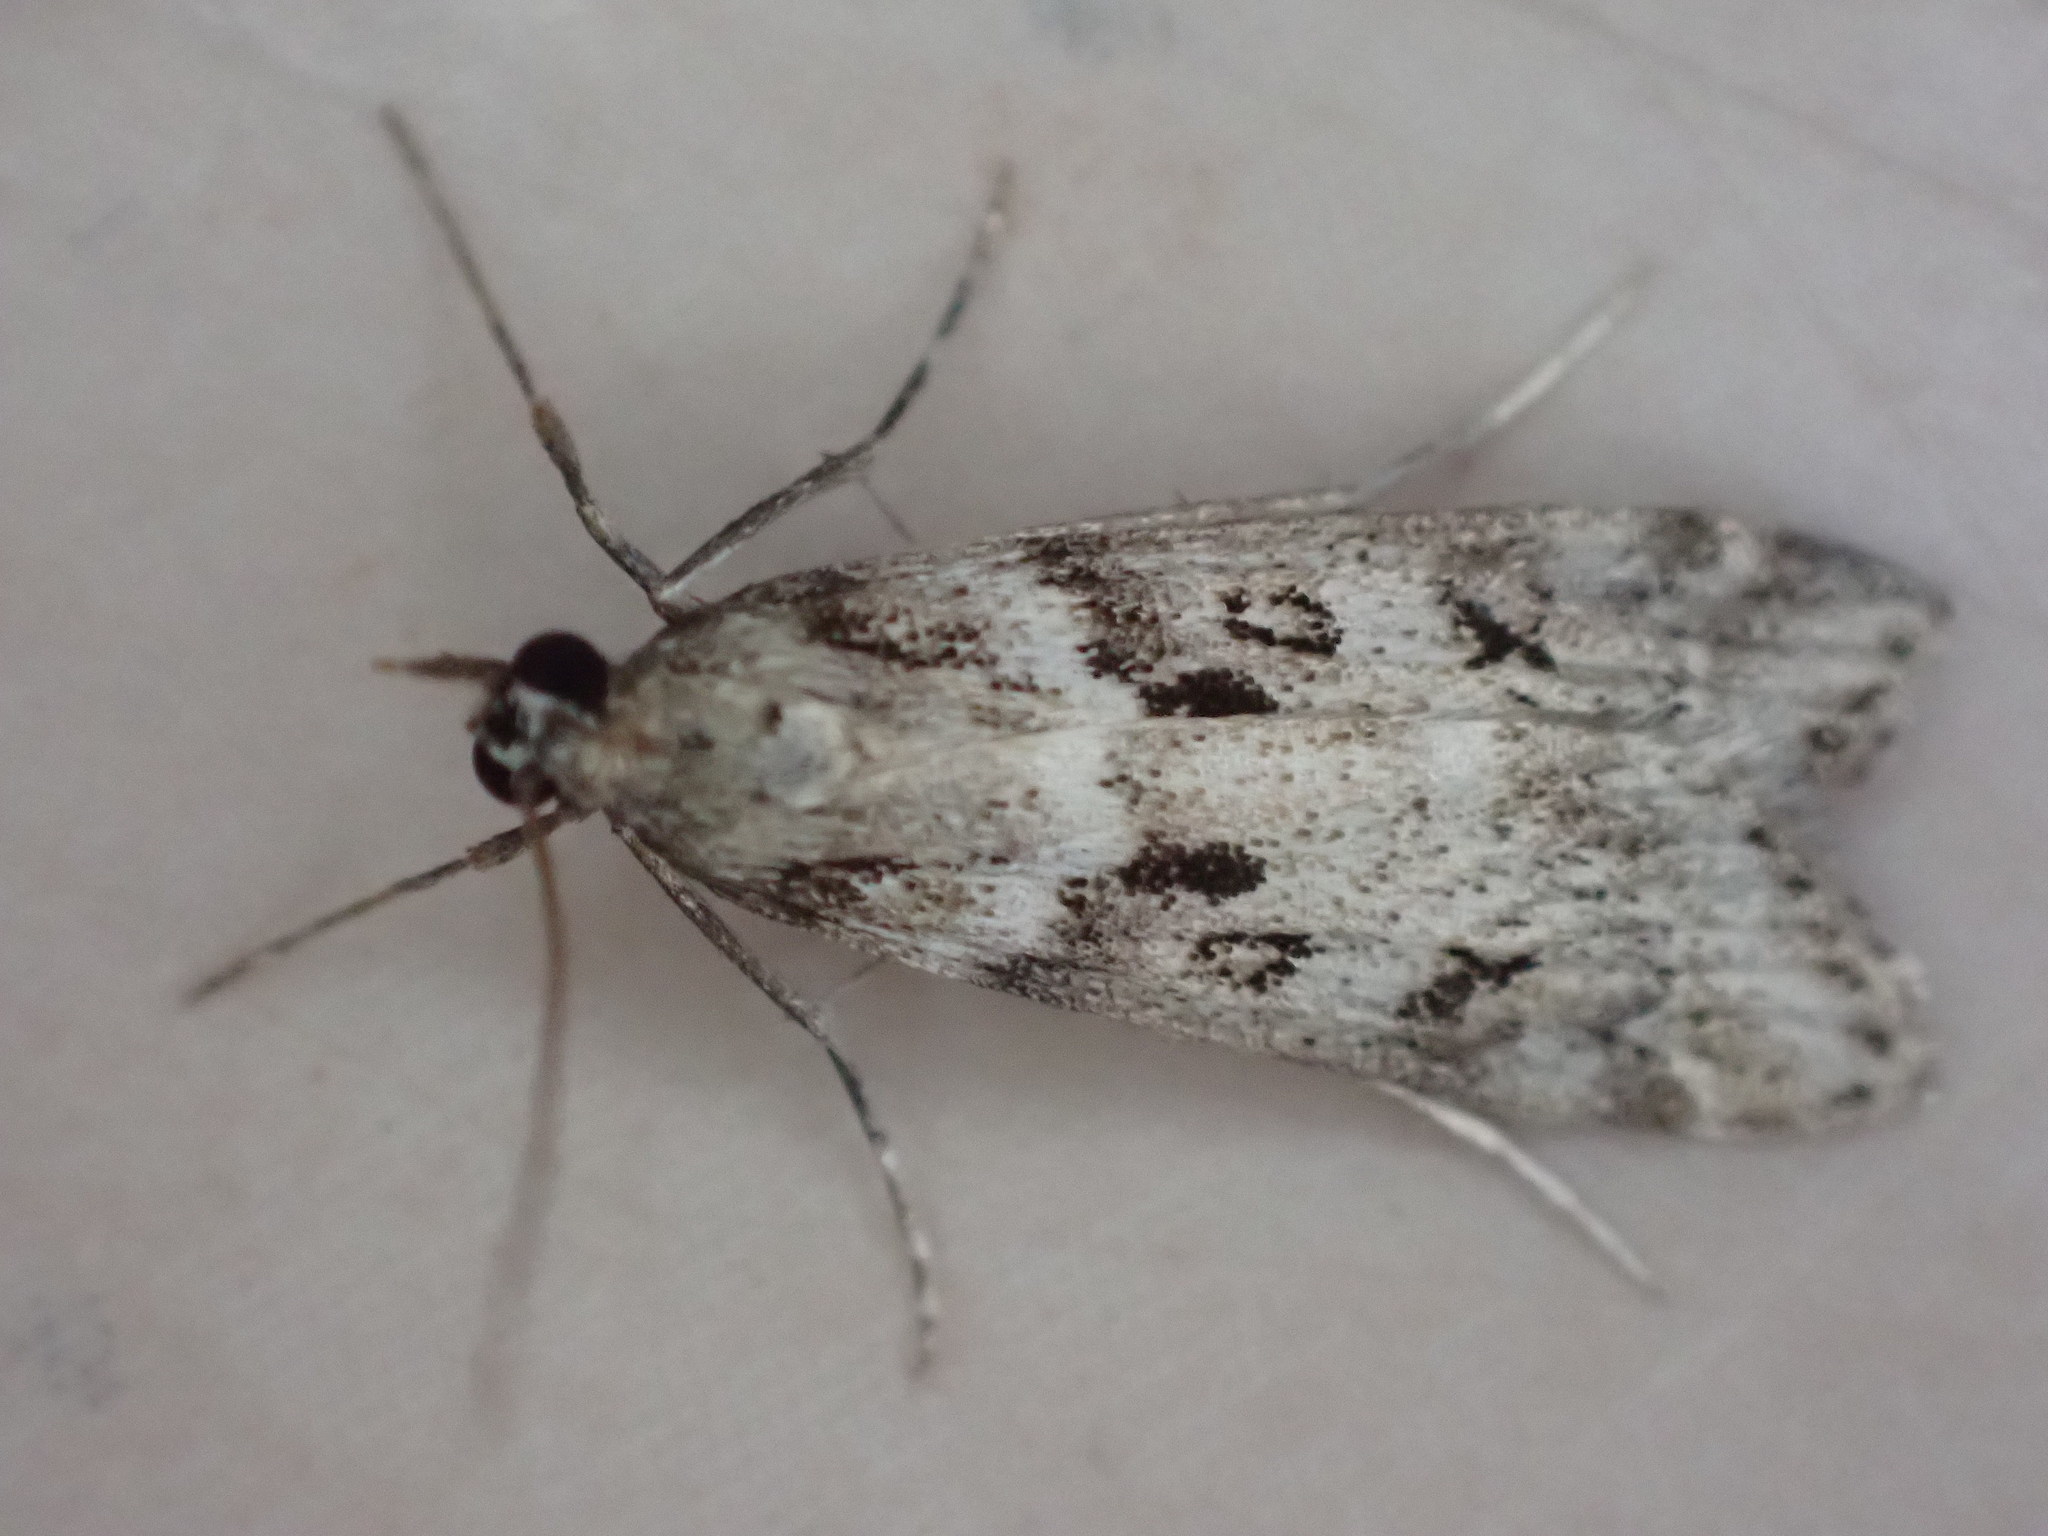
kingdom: Animalia
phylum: Arthropoda
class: Insecta
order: Lepidoptera
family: Crambidae
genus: Eudonia
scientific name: Eudonia angustea
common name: Narrow-winged grey
